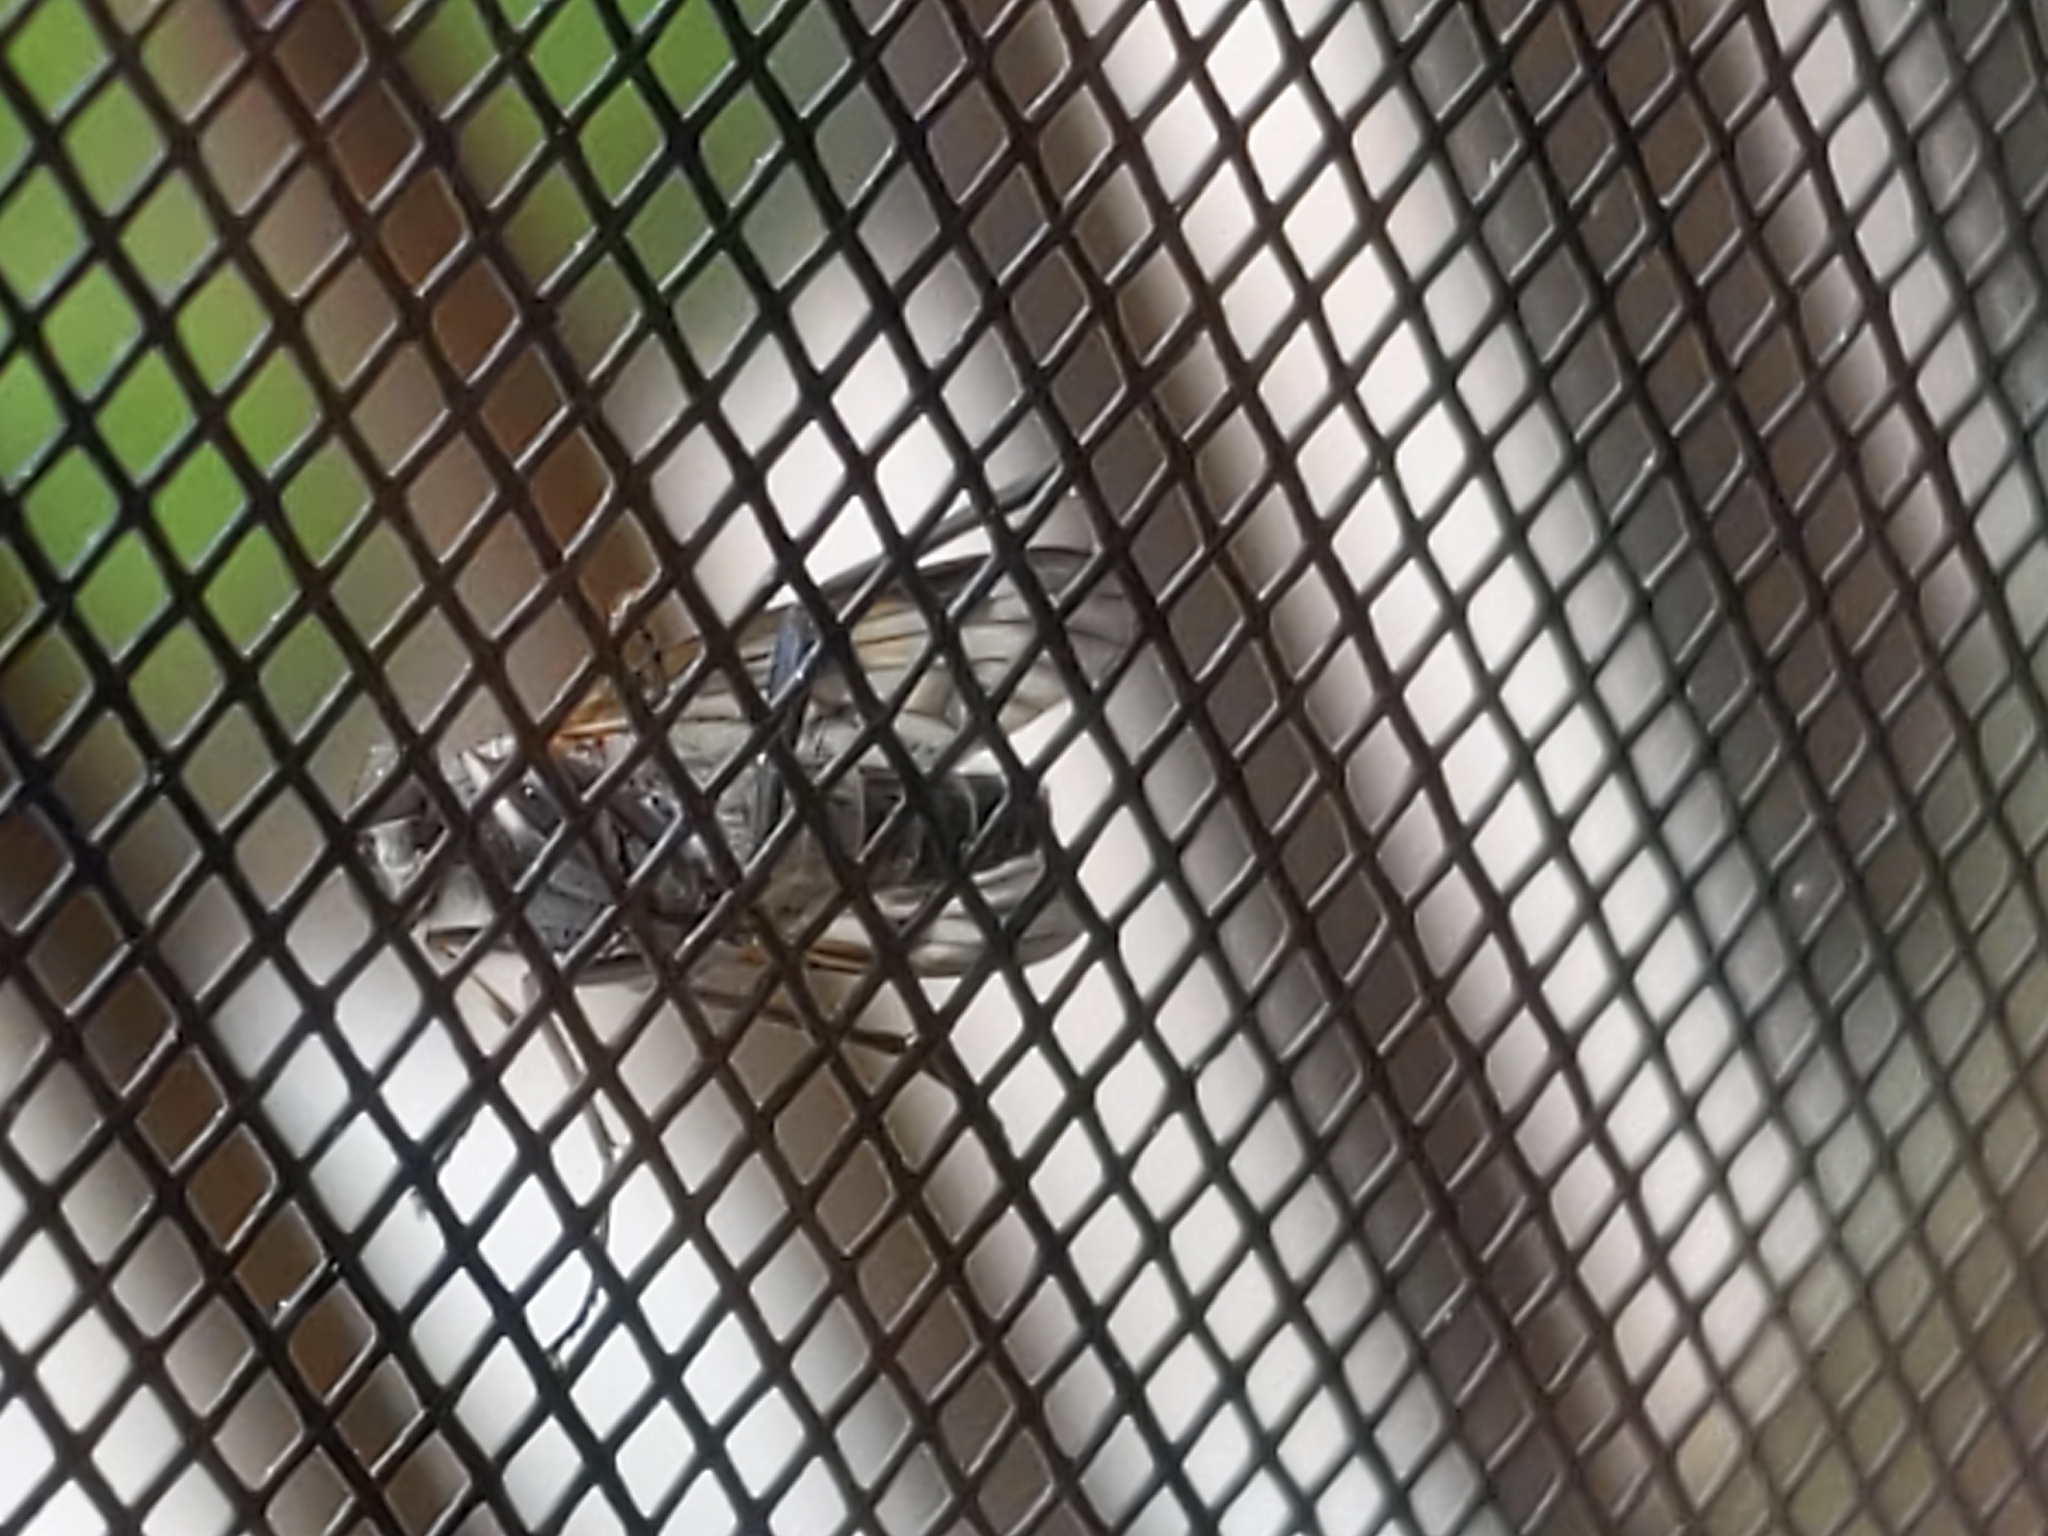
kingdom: Animalia
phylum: Arthropoda
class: Insecta
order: Diptera
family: Rhagionidae
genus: Rhagio
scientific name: Rhagio mystaceus
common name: Common snipe fly
